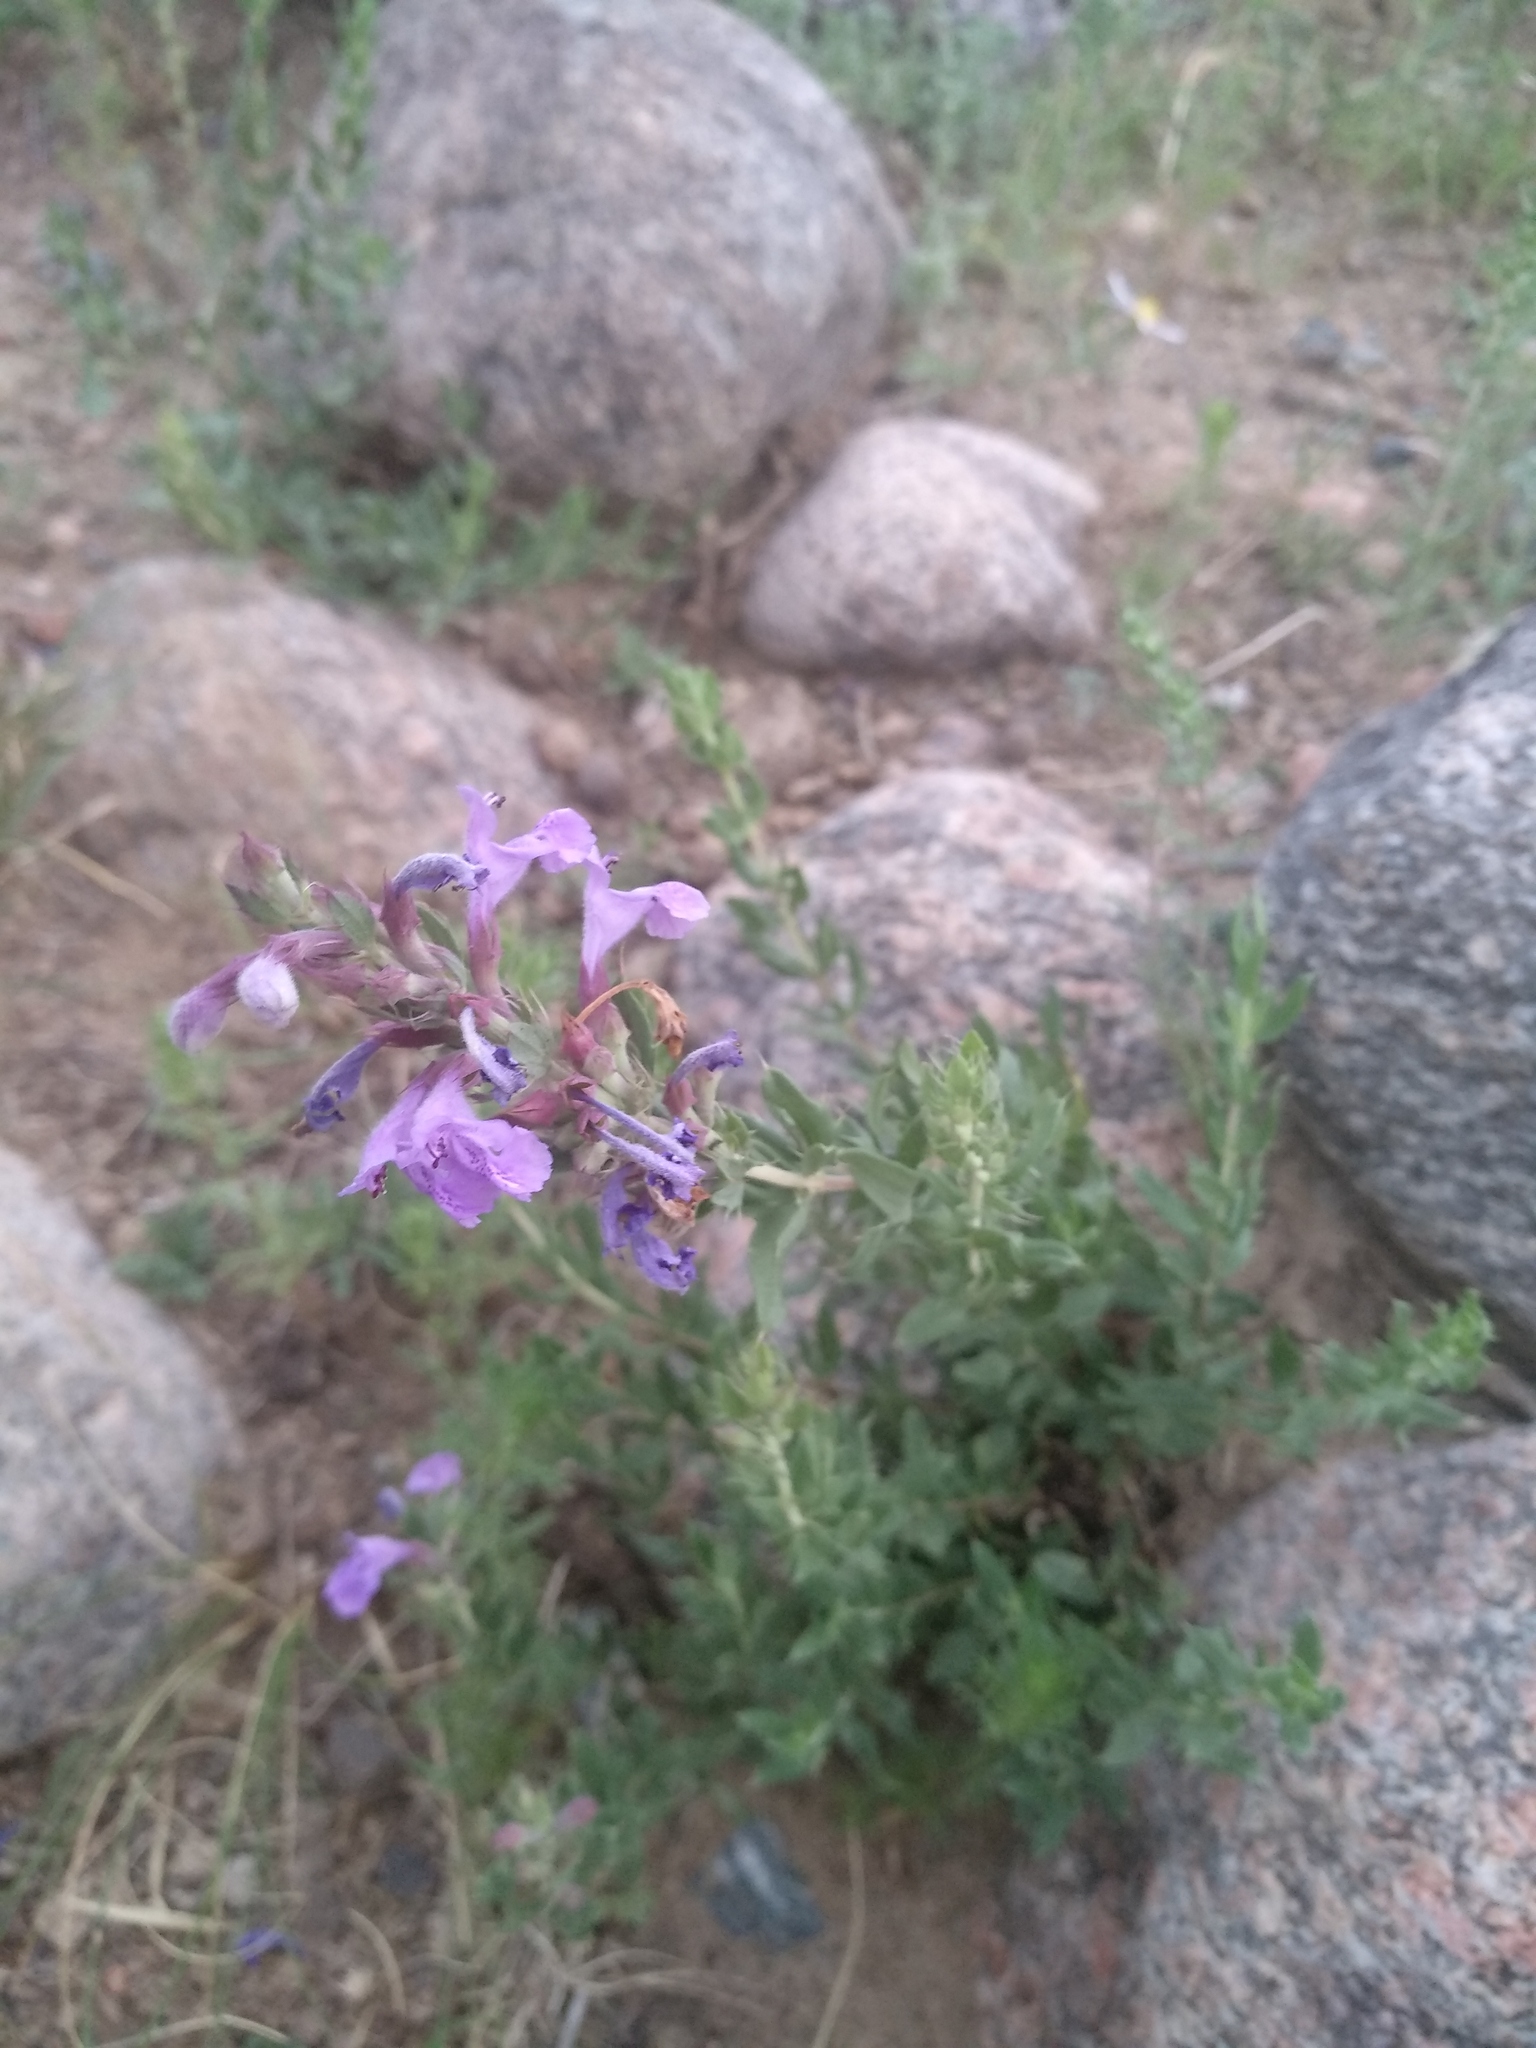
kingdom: Plantae
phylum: Tracheophyta
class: Magnoliopsida
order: Lamiales
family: Lamiaceae
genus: Dracocephalum
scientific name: Dracocephalum fruticulosum
